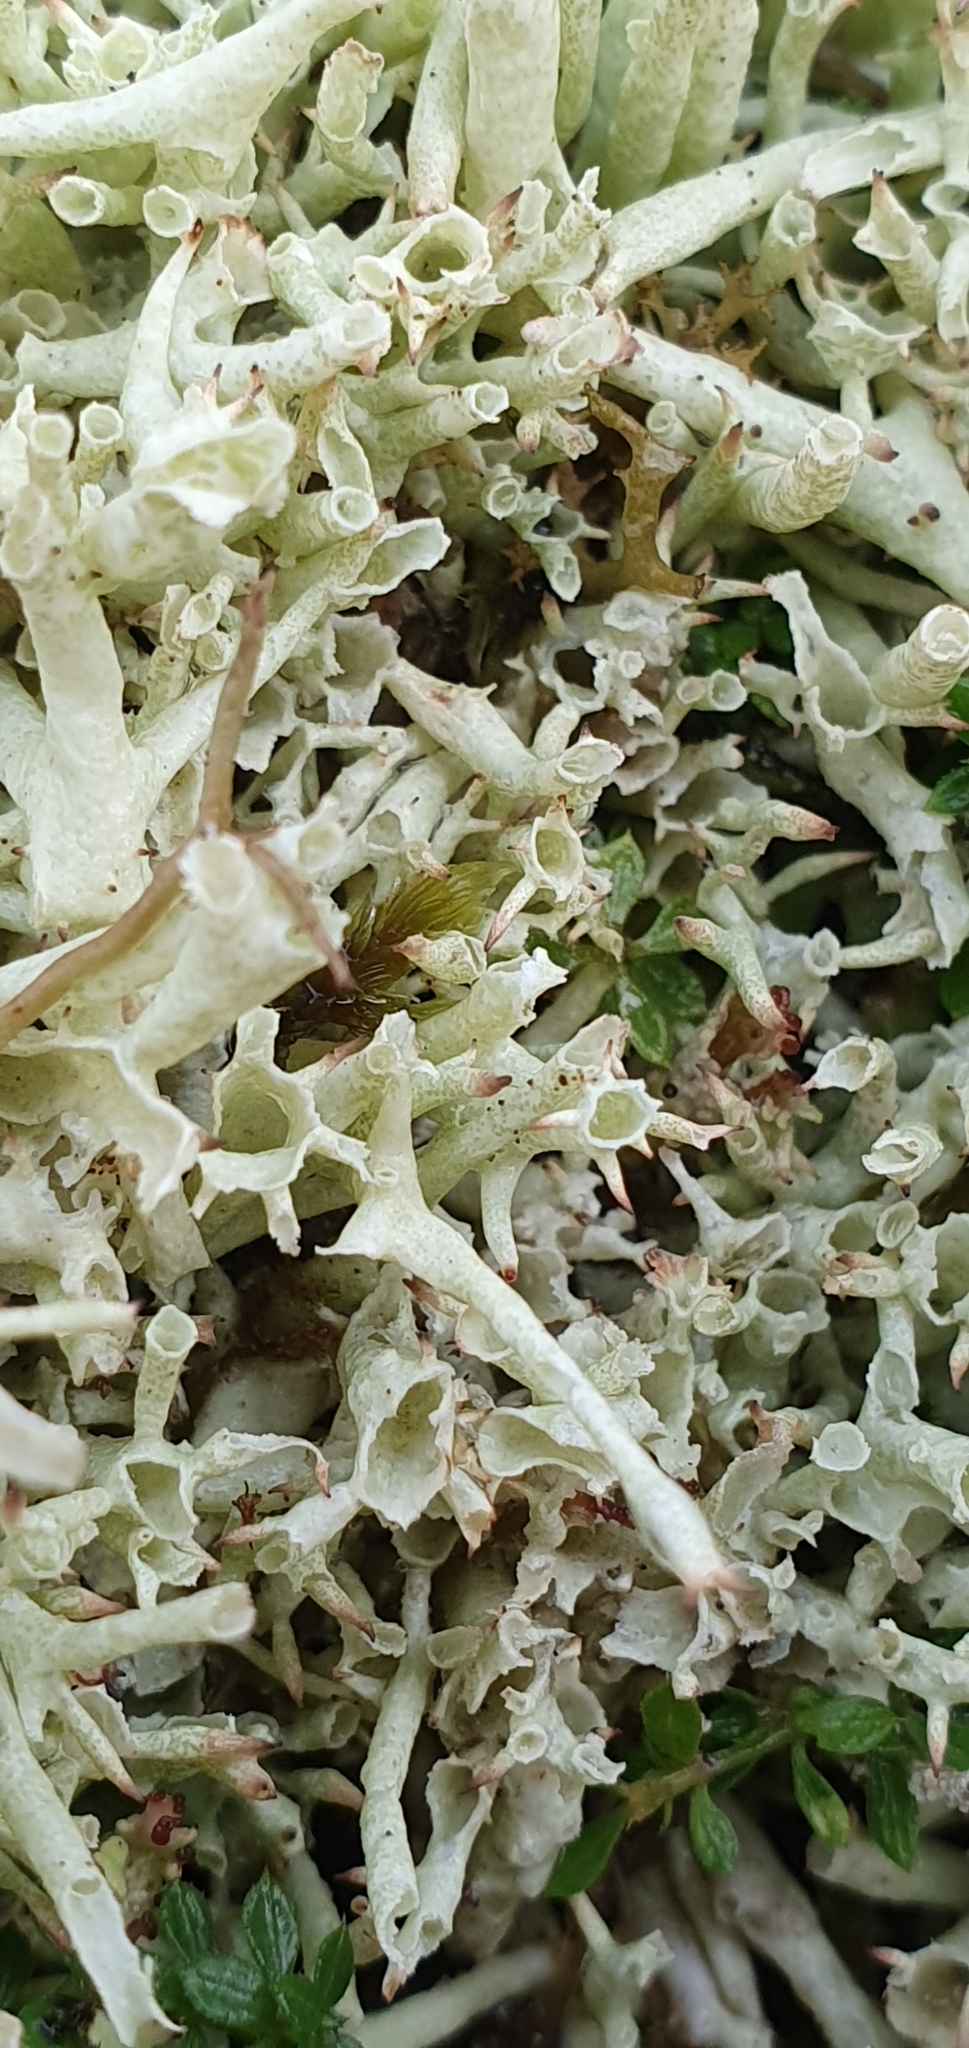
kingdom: Fungi
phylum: Ascomycota
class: Lecanoromycetes
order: Lecanorales
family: Cladoniaceae
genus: Cladonia
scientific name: Cladonia uncialis
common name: Thorn lichen
